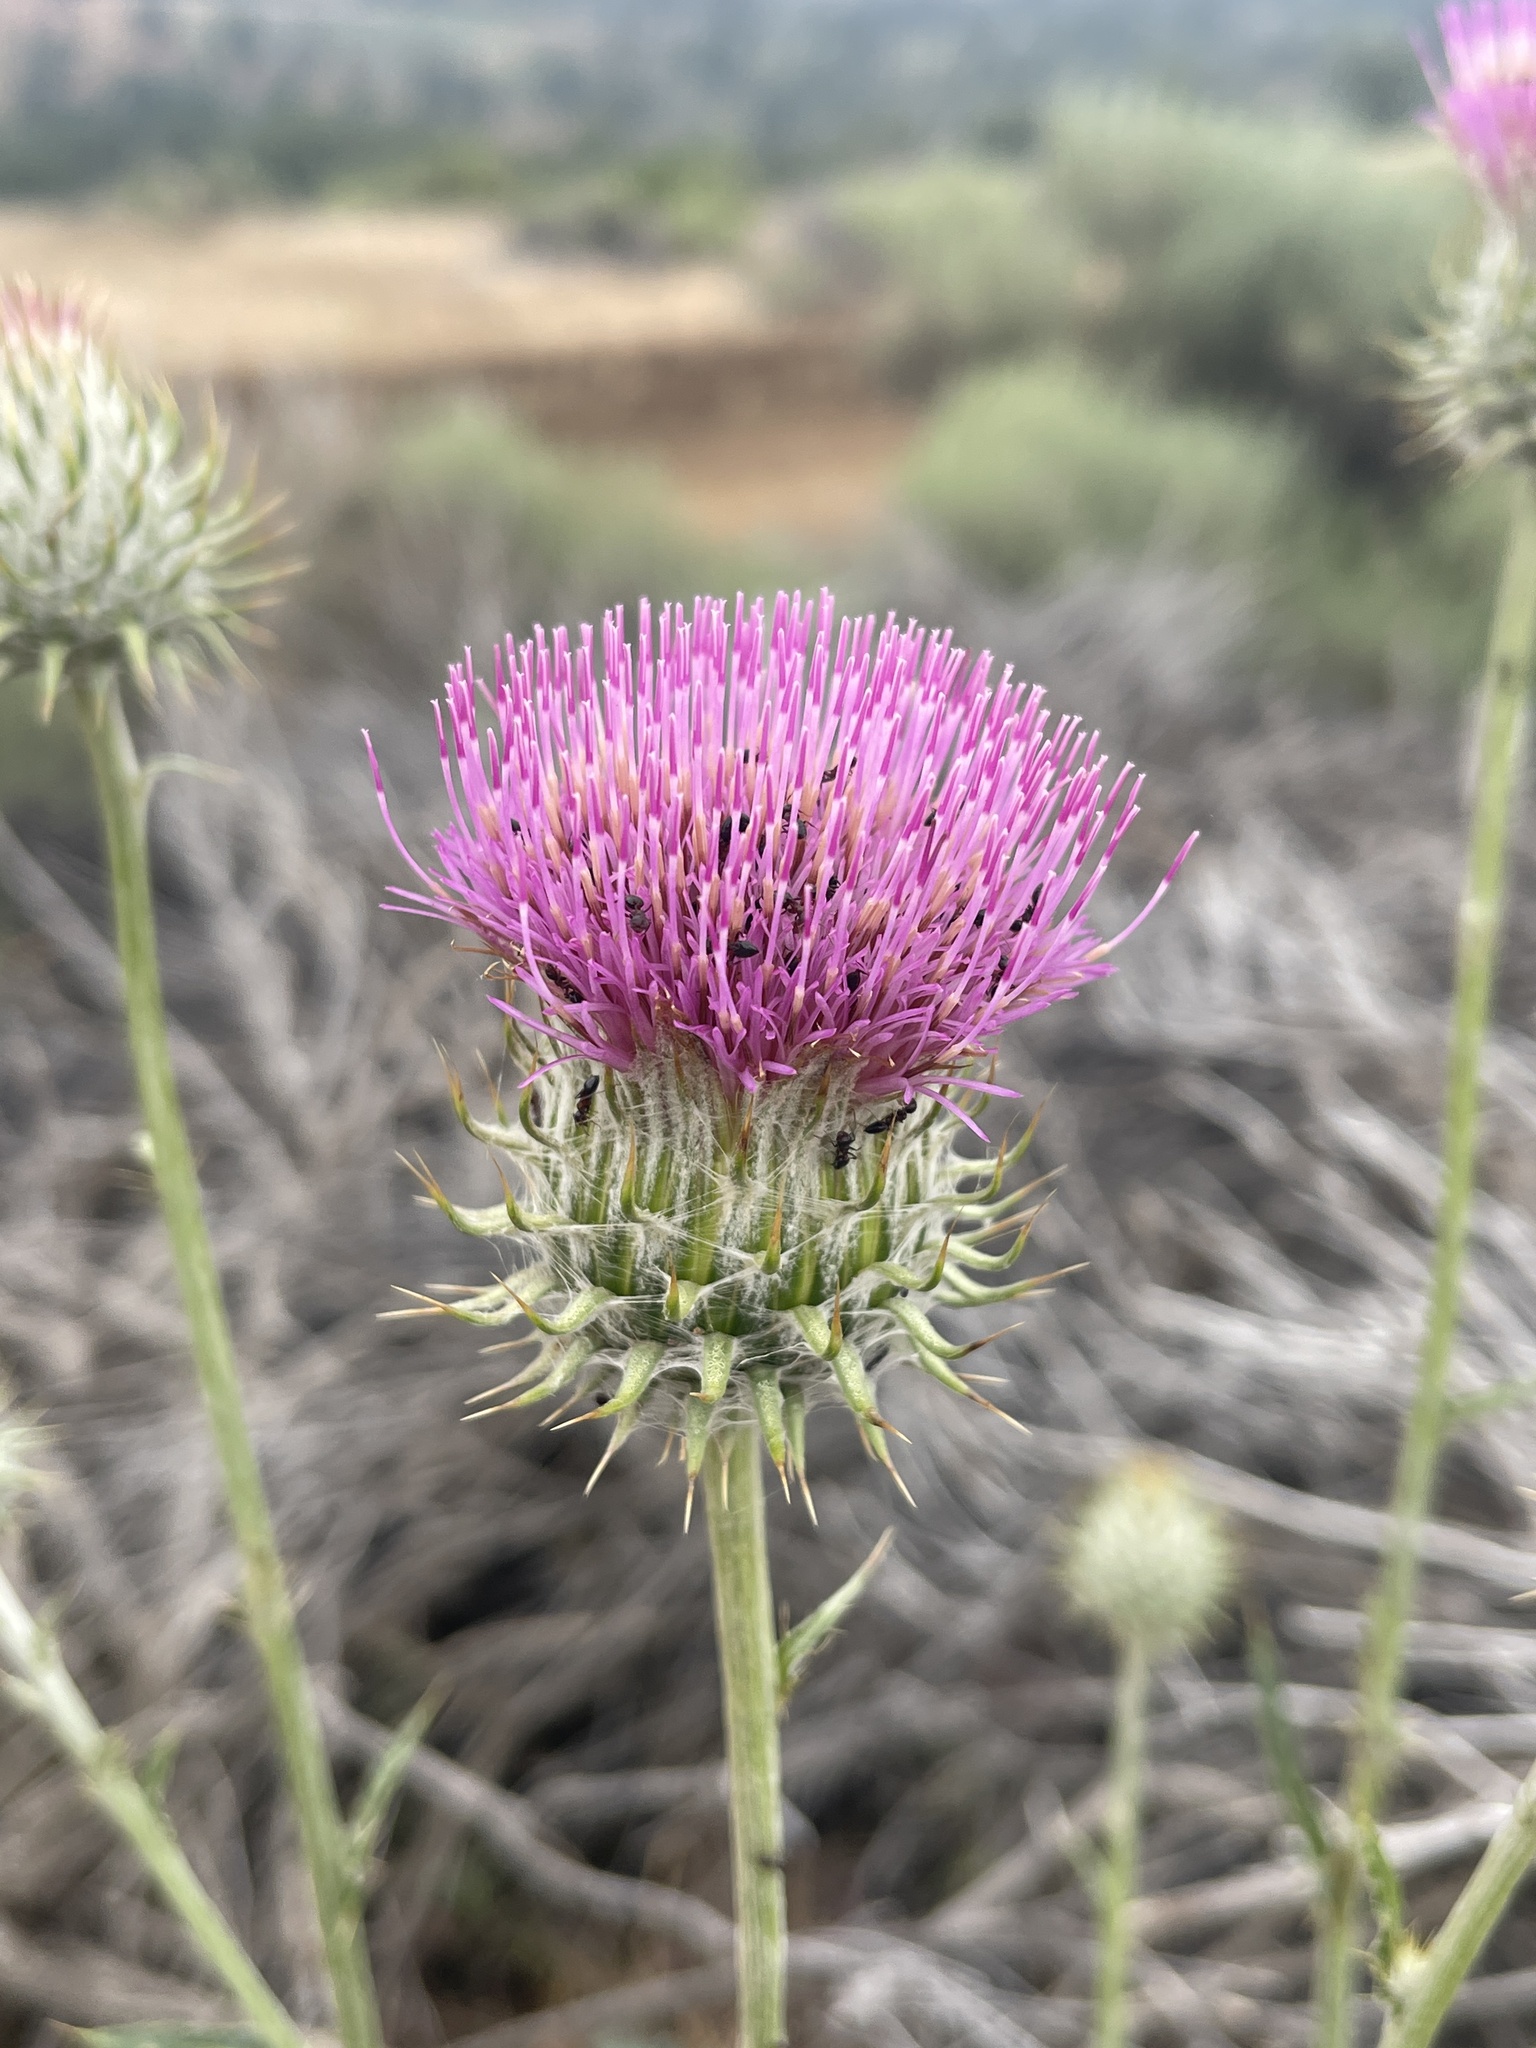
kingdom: Plantae
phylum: Tracheophyta
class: Magnoliopsida
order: Asterales
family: Asteraceae
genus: Cirsium
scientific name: Cirsium occidentale
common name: Western thistle
